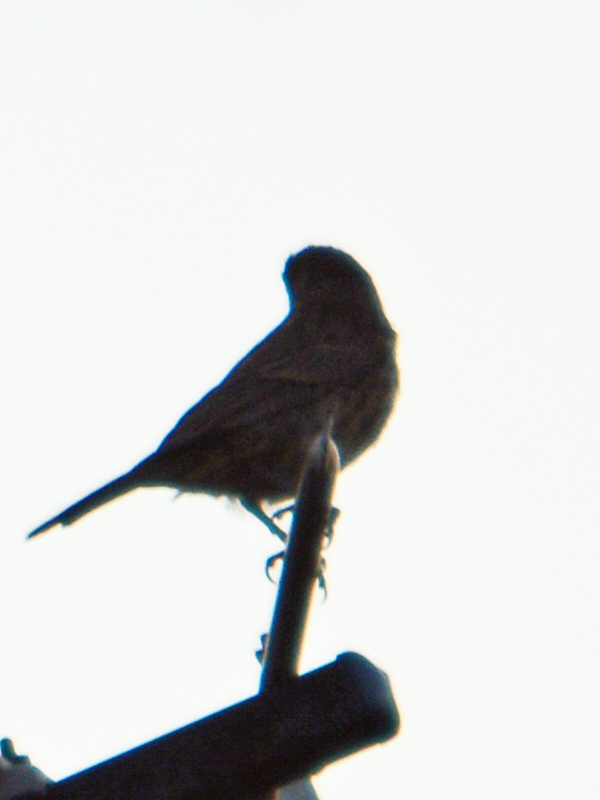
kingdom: Animalia
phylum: Chordata
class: Aves
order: Passeriformes
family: Fringillidae
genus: Haemorhous
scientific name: Haemorhous mexicanus
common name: House finch
